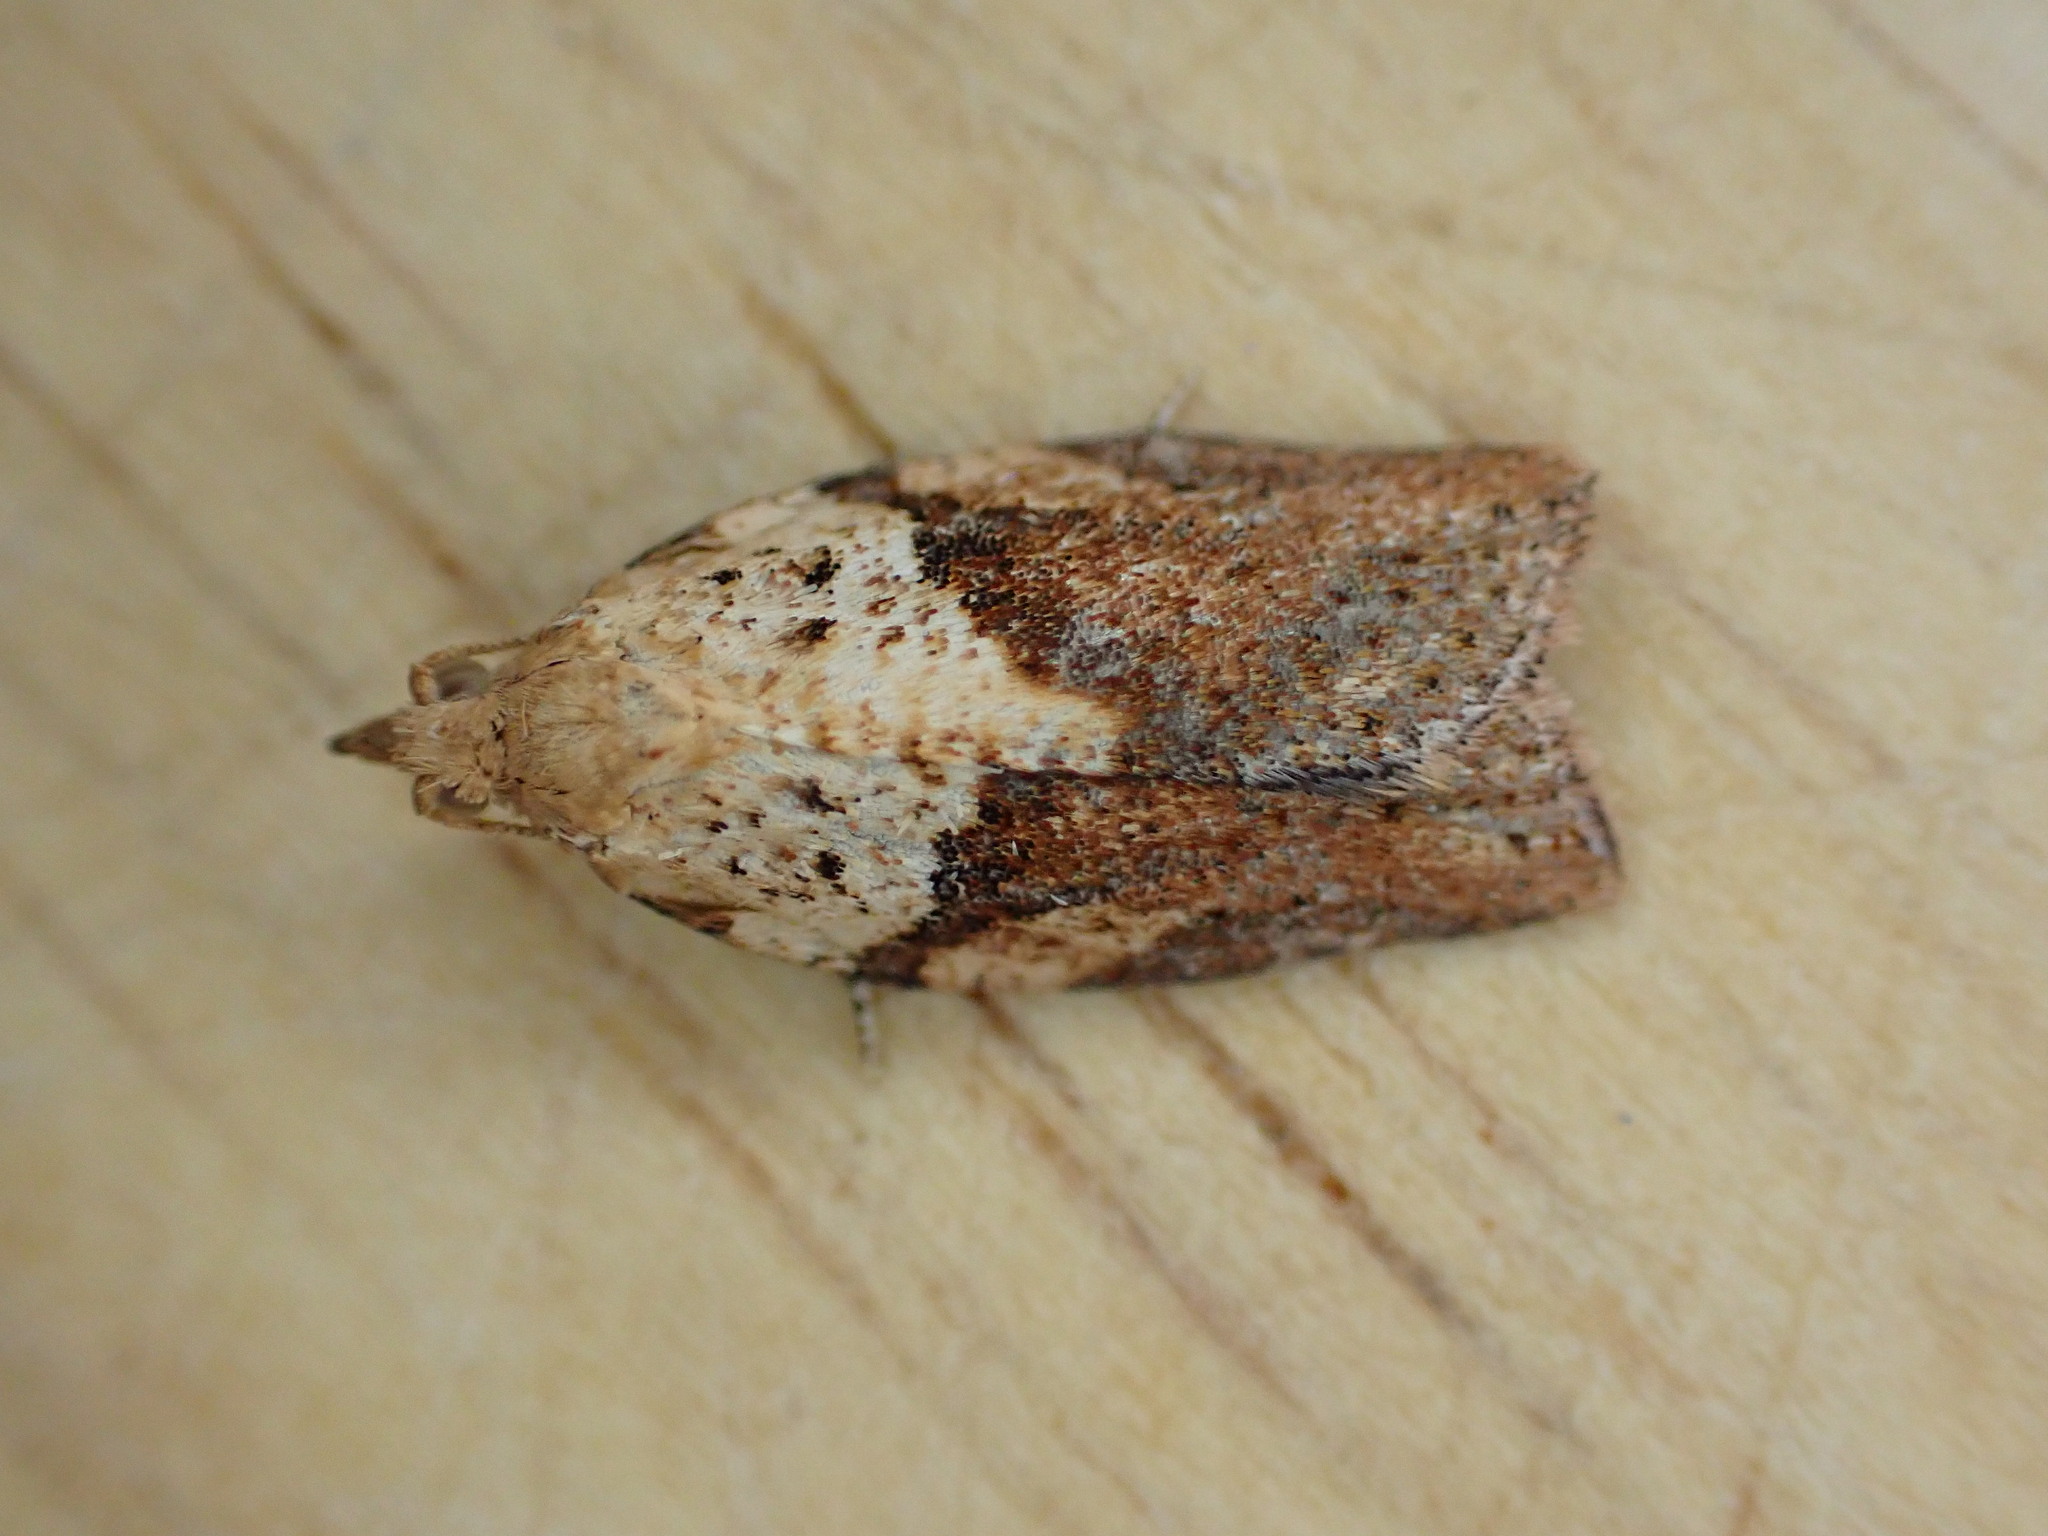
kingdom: Animalia
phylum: Arthropoda
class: Insecta
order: Lepidoptera
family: Tortricidae
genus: Epiphyas
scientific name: Epiphyas postvittana
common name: Light brown apple moth
